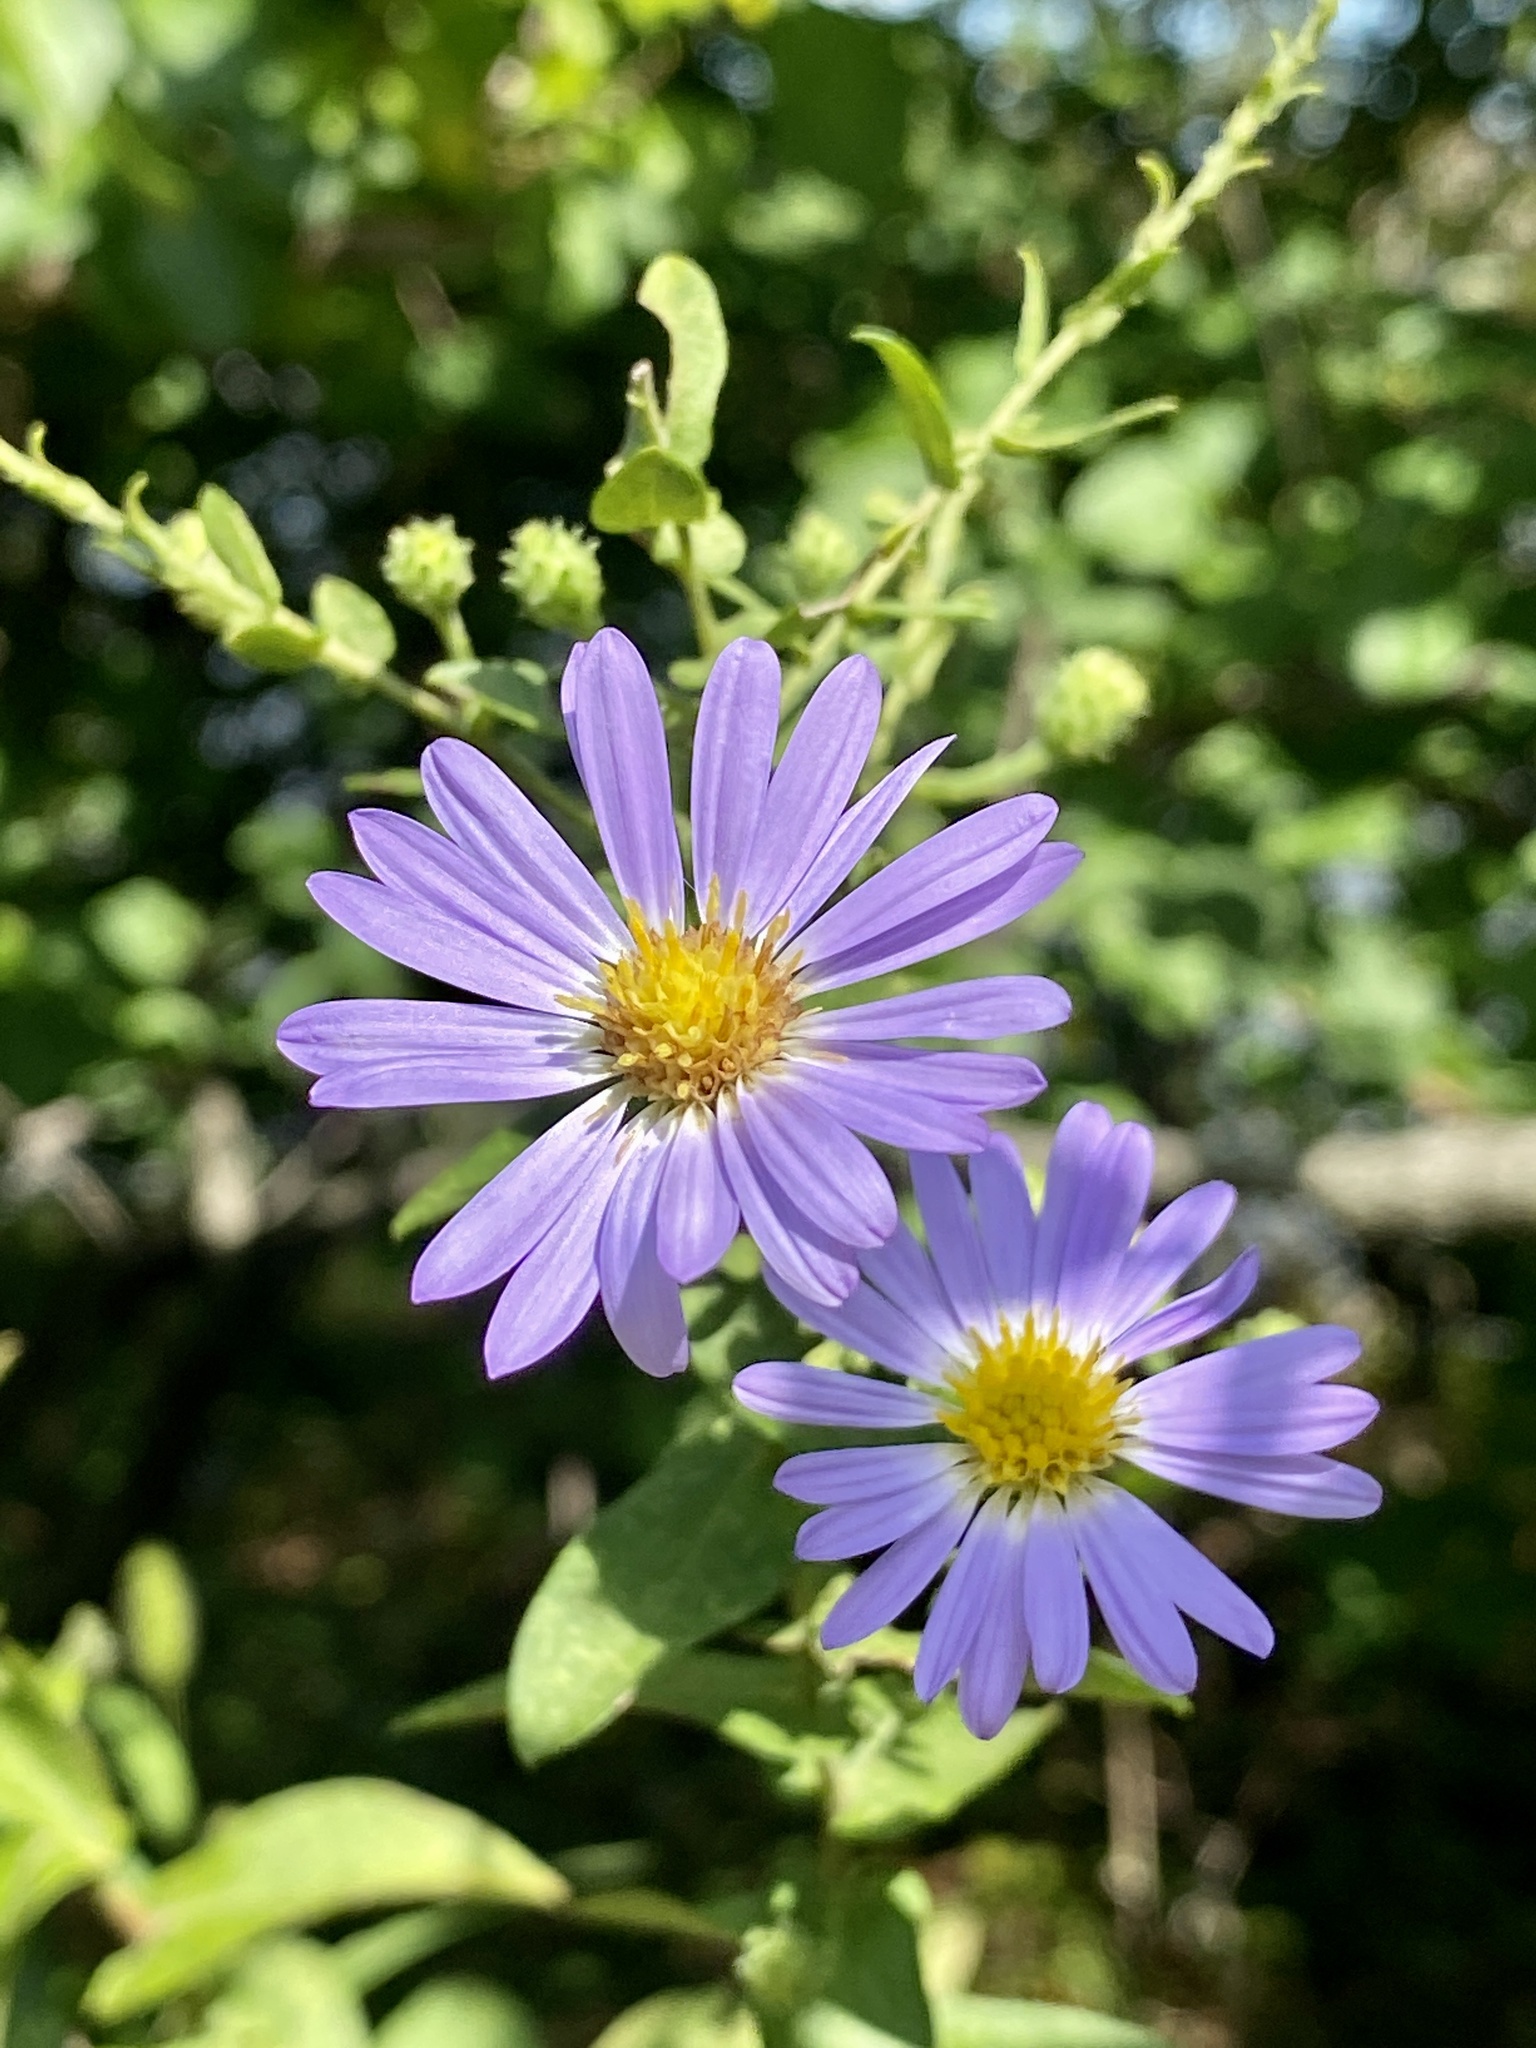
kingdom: Plantae
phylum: Tracheophyta
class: Magnoliopsida
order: Asterales
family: Asteraceae
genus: Symphyotrichum
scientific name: Symphyotrichum laeve
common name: Glaucous aster
